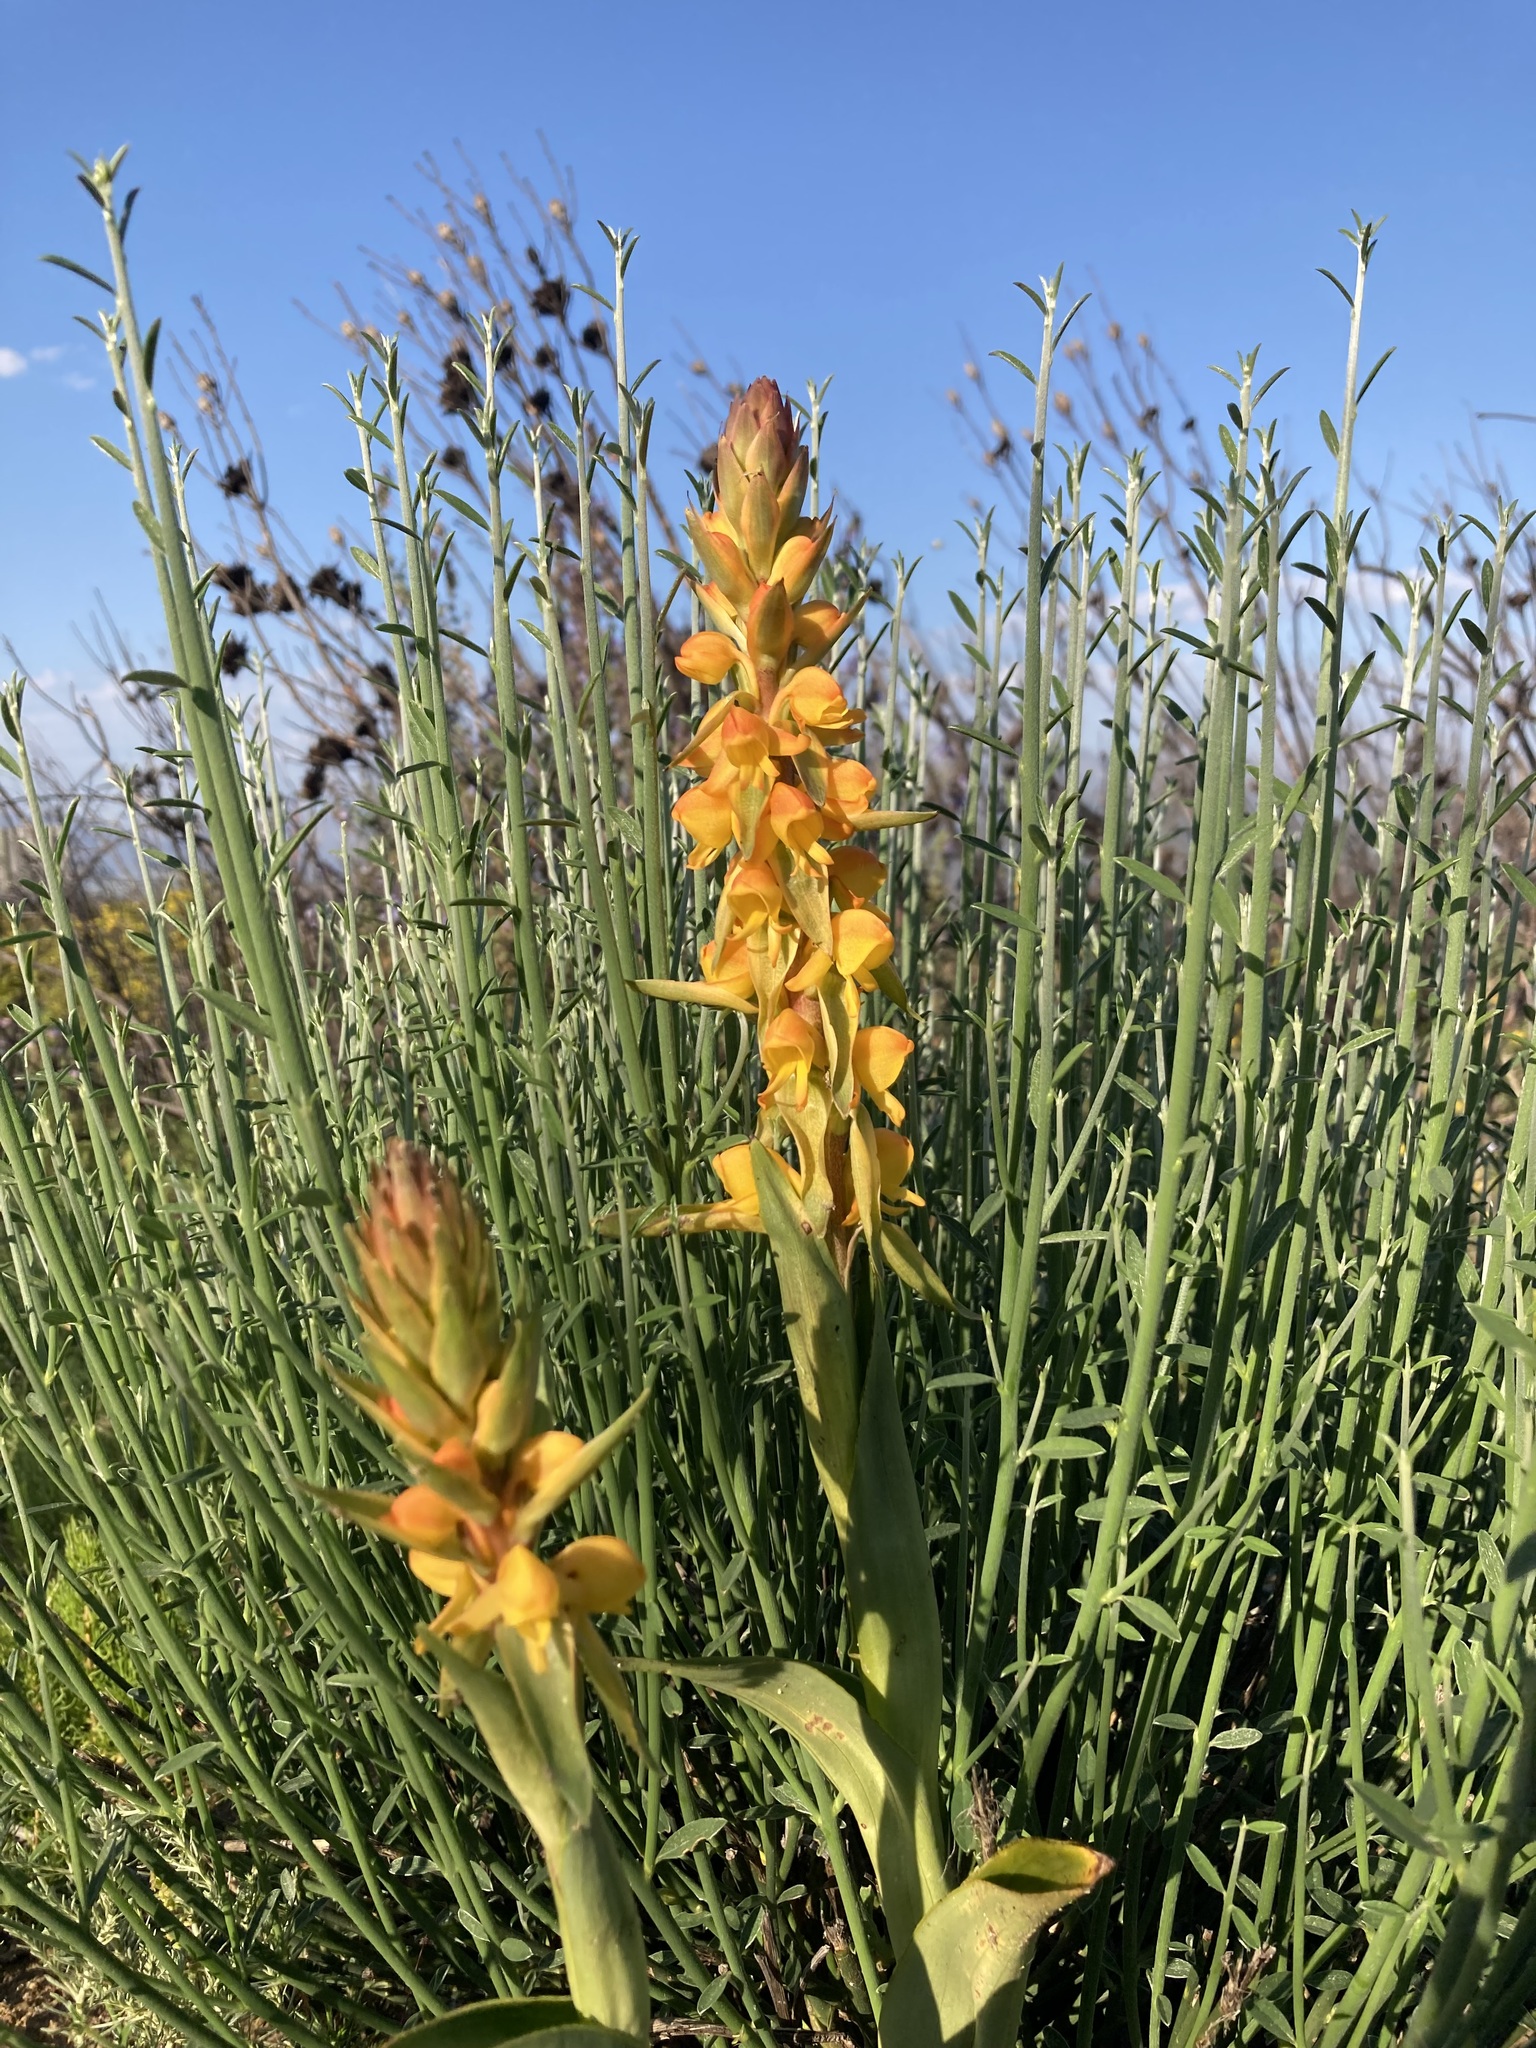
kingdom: Plantae
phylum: Tracheophyta
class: Liliopsida
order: Asparagales
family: Orchidaceae
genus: Satyrium
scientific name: Satyrium coriifolium
